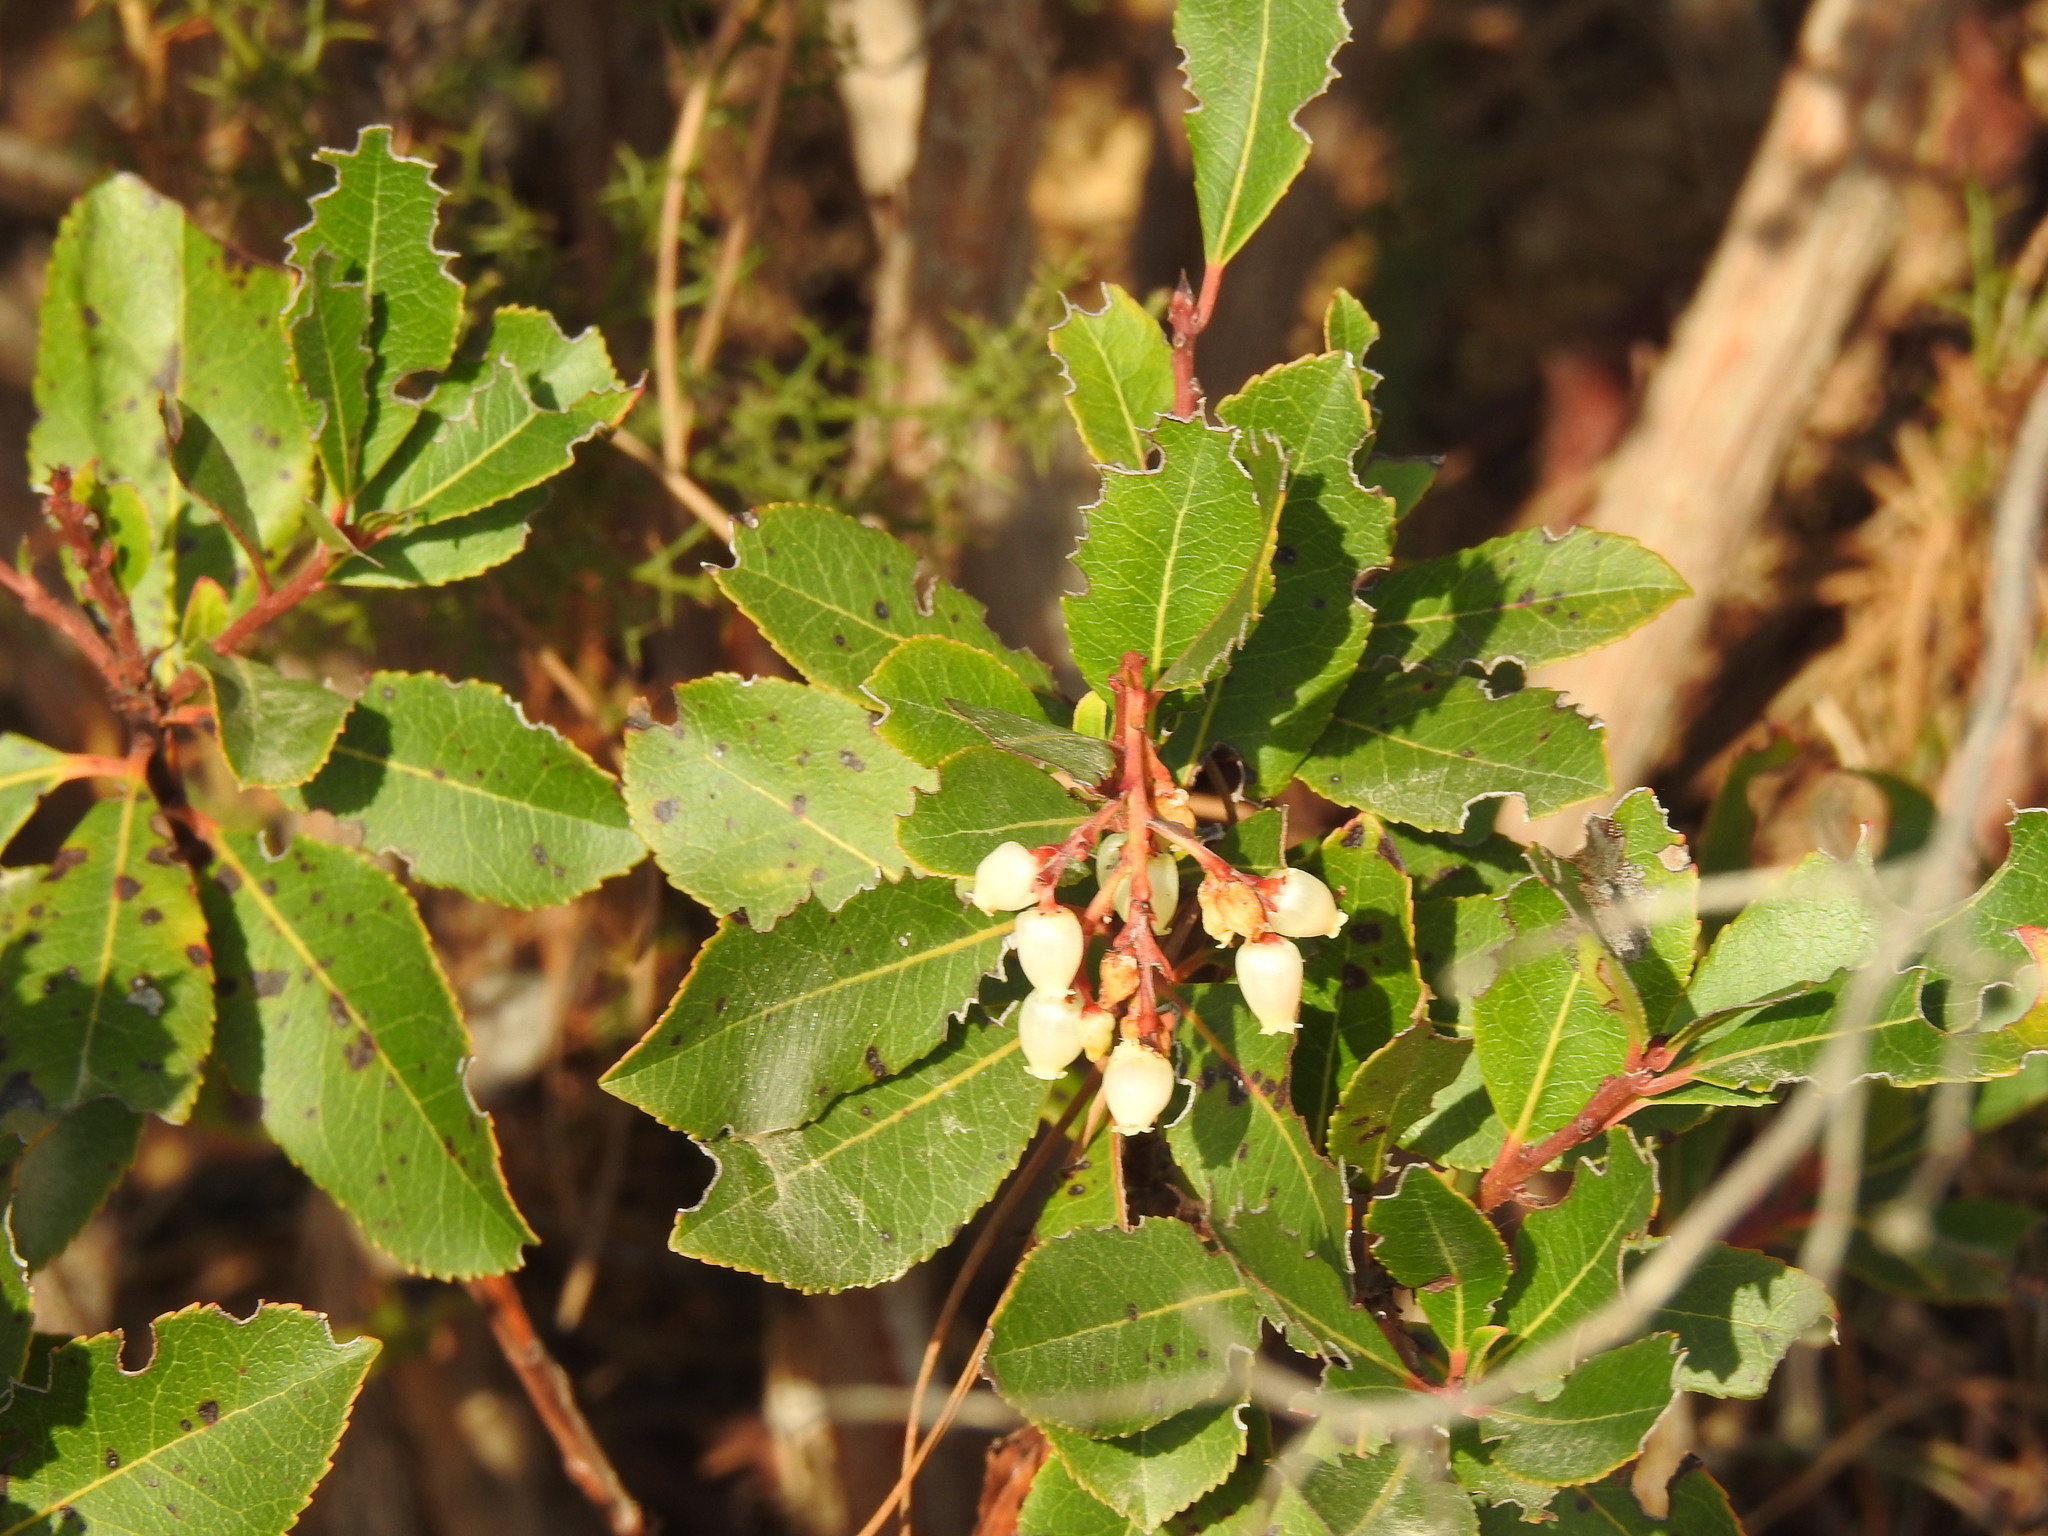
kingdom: Plantae
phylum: Tracheophyta
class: Magnoliopsida
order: Ericales
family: Ericaceae
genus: Arbutus
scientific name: Arbutus unedo
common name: Strawberry-tree
